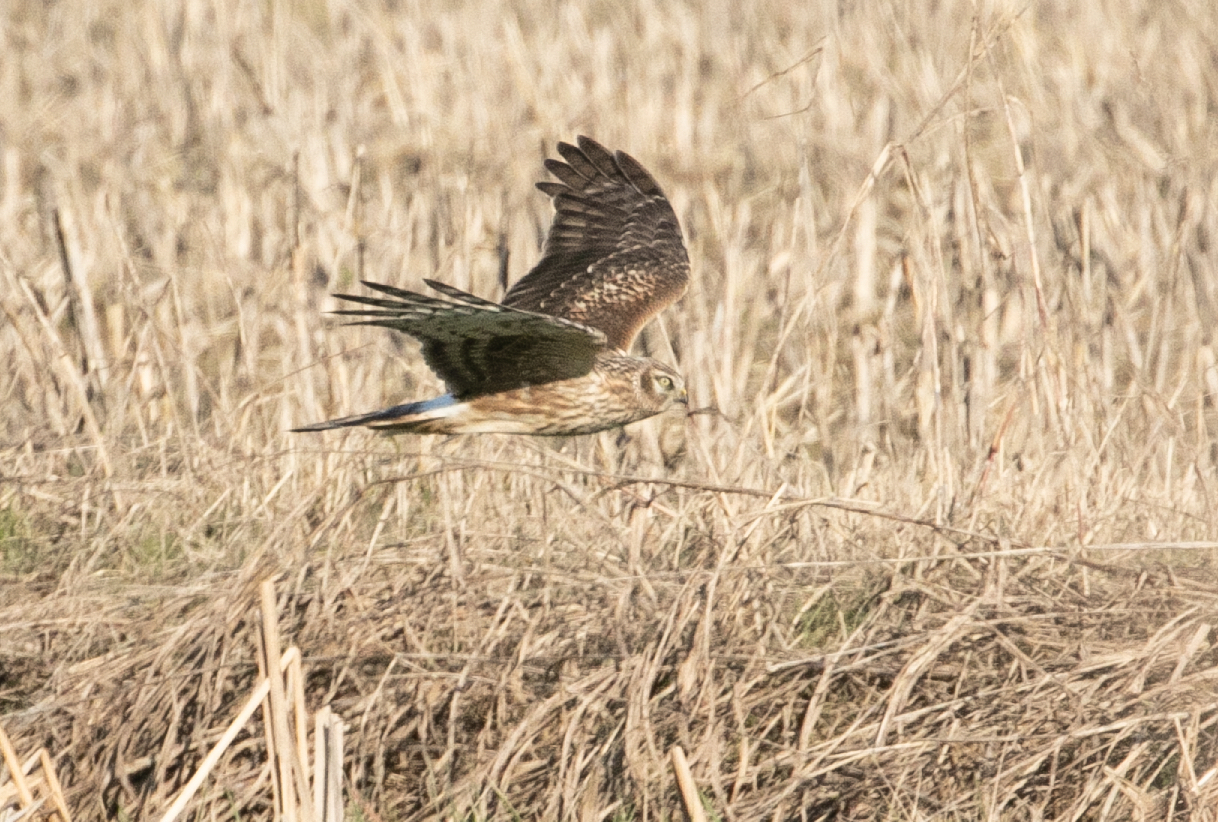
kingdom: Animalia
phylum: Chordata
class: Aves
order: Accipitriformes
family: Accipitridae
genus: Circus
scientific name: Circus cyaneus
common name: Hen harrier
